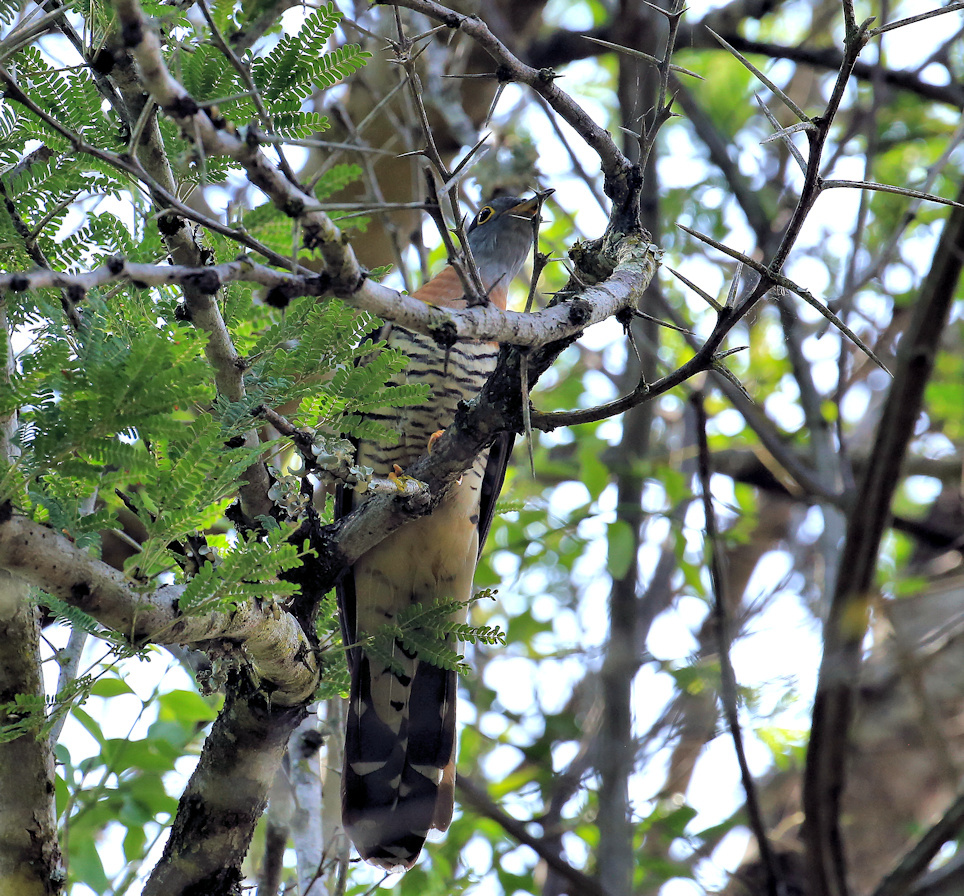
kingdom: Animalia
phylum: Chordata
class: Aves
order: Cuculiformes
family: Cuculidae
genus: Cuculus
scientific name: Cuculus solitarius
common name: Red-chested cuckoo
